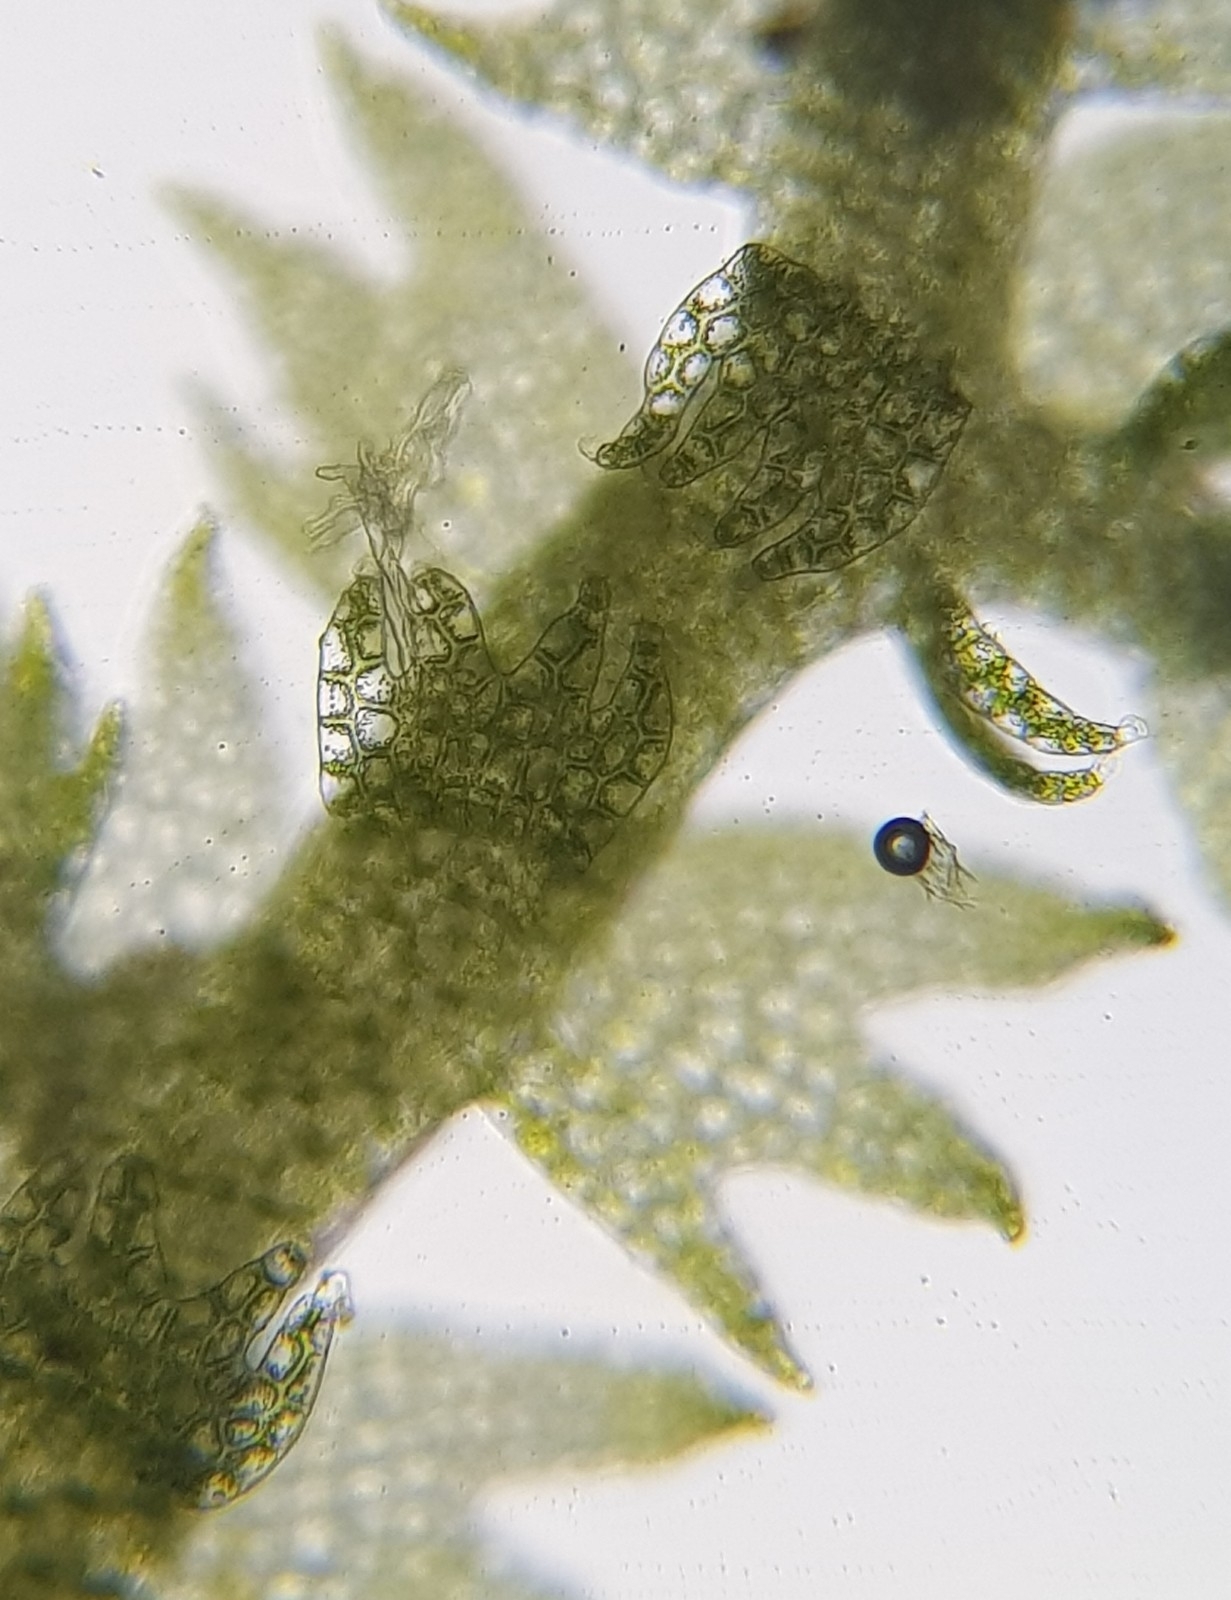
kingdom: Plantae
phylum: Marchantiophyta
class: Jungermanniopsida
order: Jungermanniales
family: Lepidoziaceae
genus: Lepidozia
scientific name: Lepidozia reptans
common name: Creeping fingerwort
